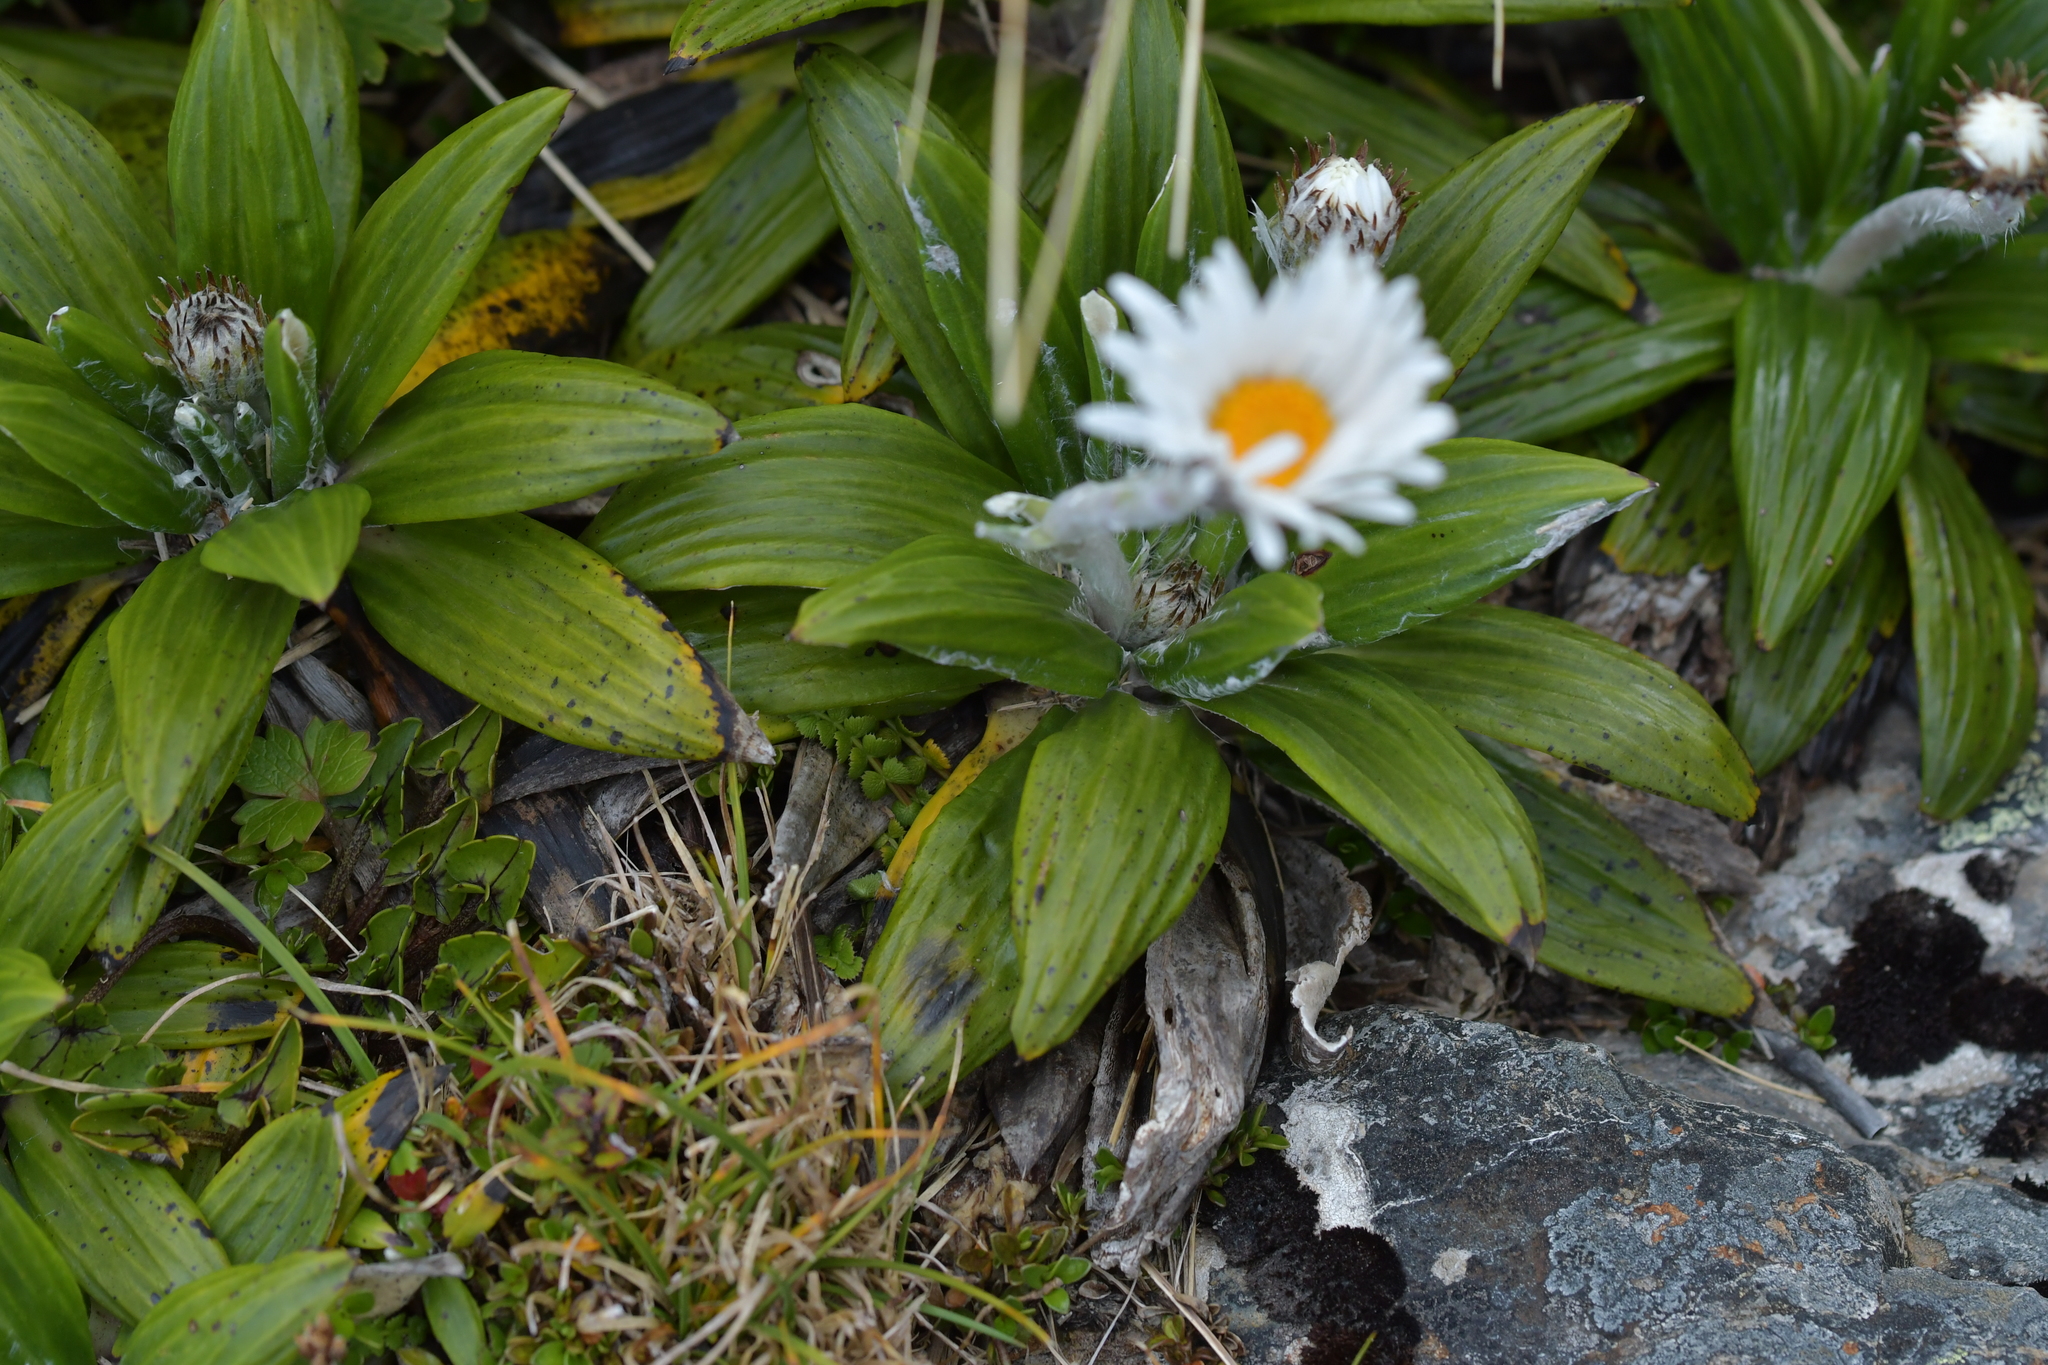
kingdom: Plantae
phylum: Tracheophyta
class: Magnoliopsida
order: Asterales
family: Asteraceae
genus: Celmisia
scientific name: Celmisia spectabilis
